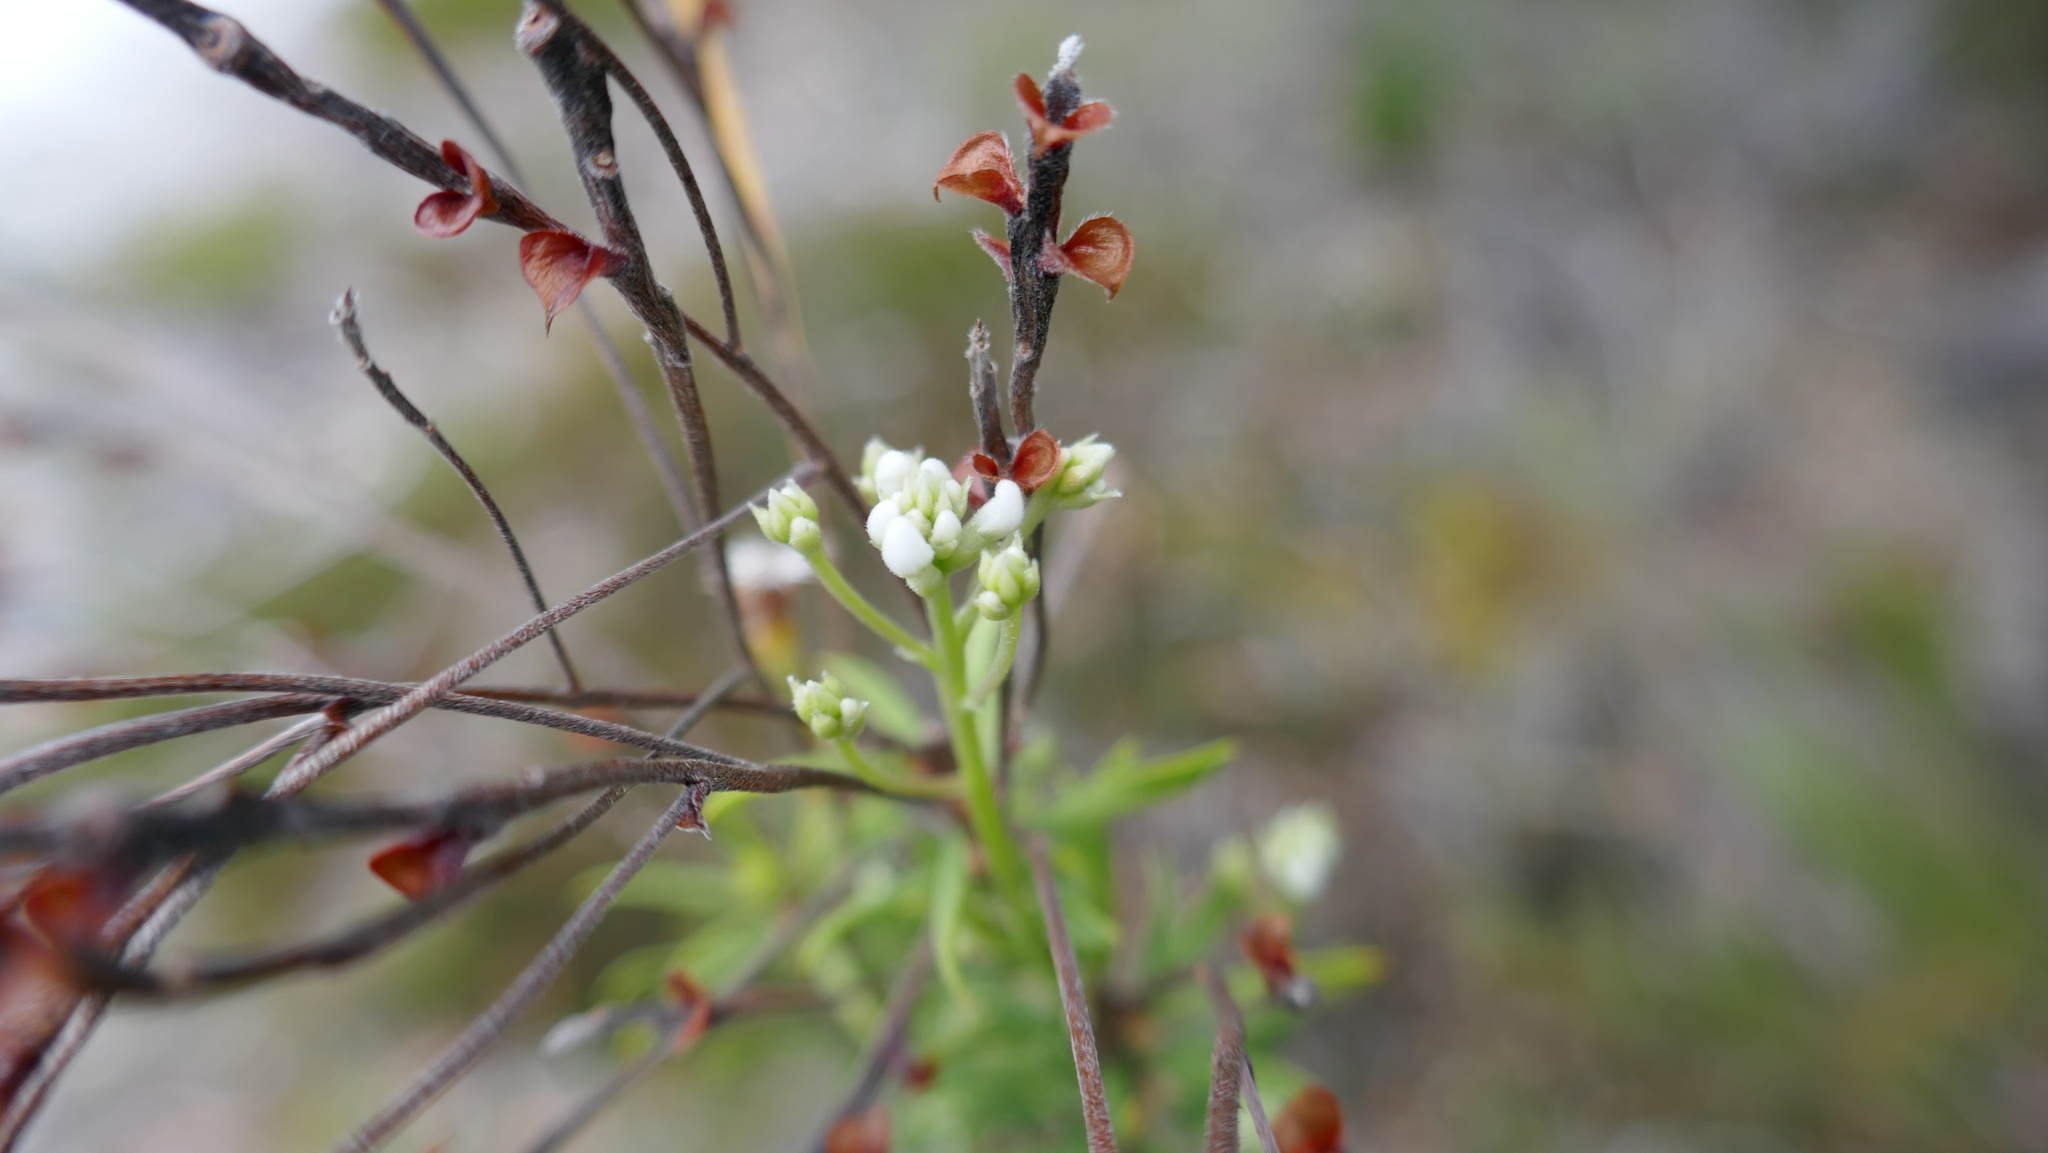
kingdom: Plantae
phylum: Tracheophyta
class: Magnoliopsida
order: Proteales
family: Proteaceae
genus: Conospermum
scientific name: Conospermum taxifolium
